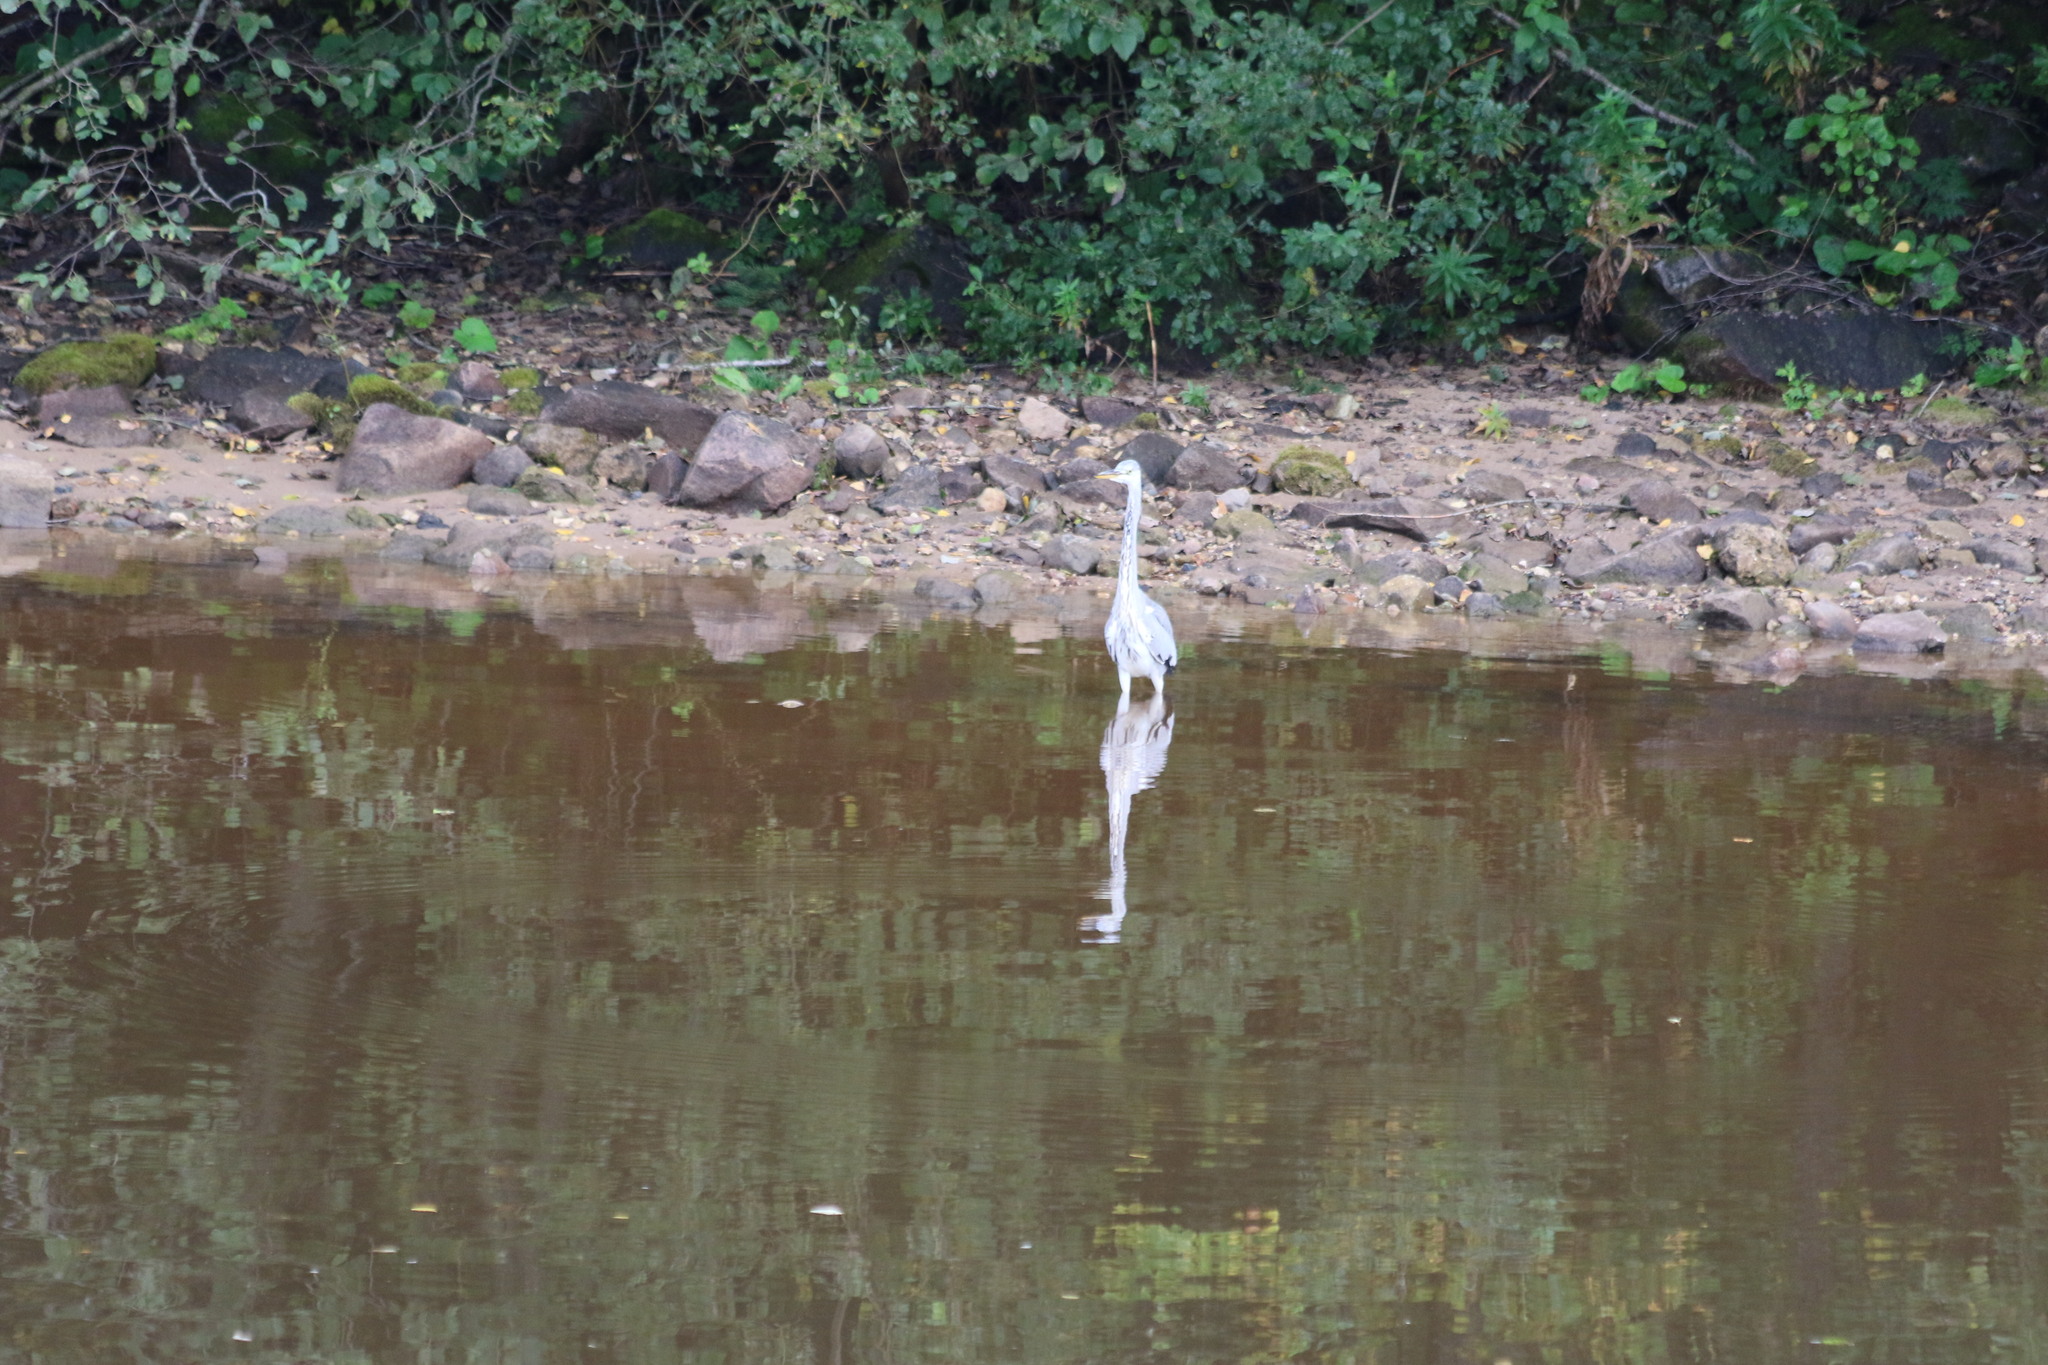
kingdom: Animalia
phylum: Chordata
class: Aves
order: Pelecaniformes
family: Ardeidae
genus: Ardea
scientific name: Ardea cinerea
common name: Grey heron
